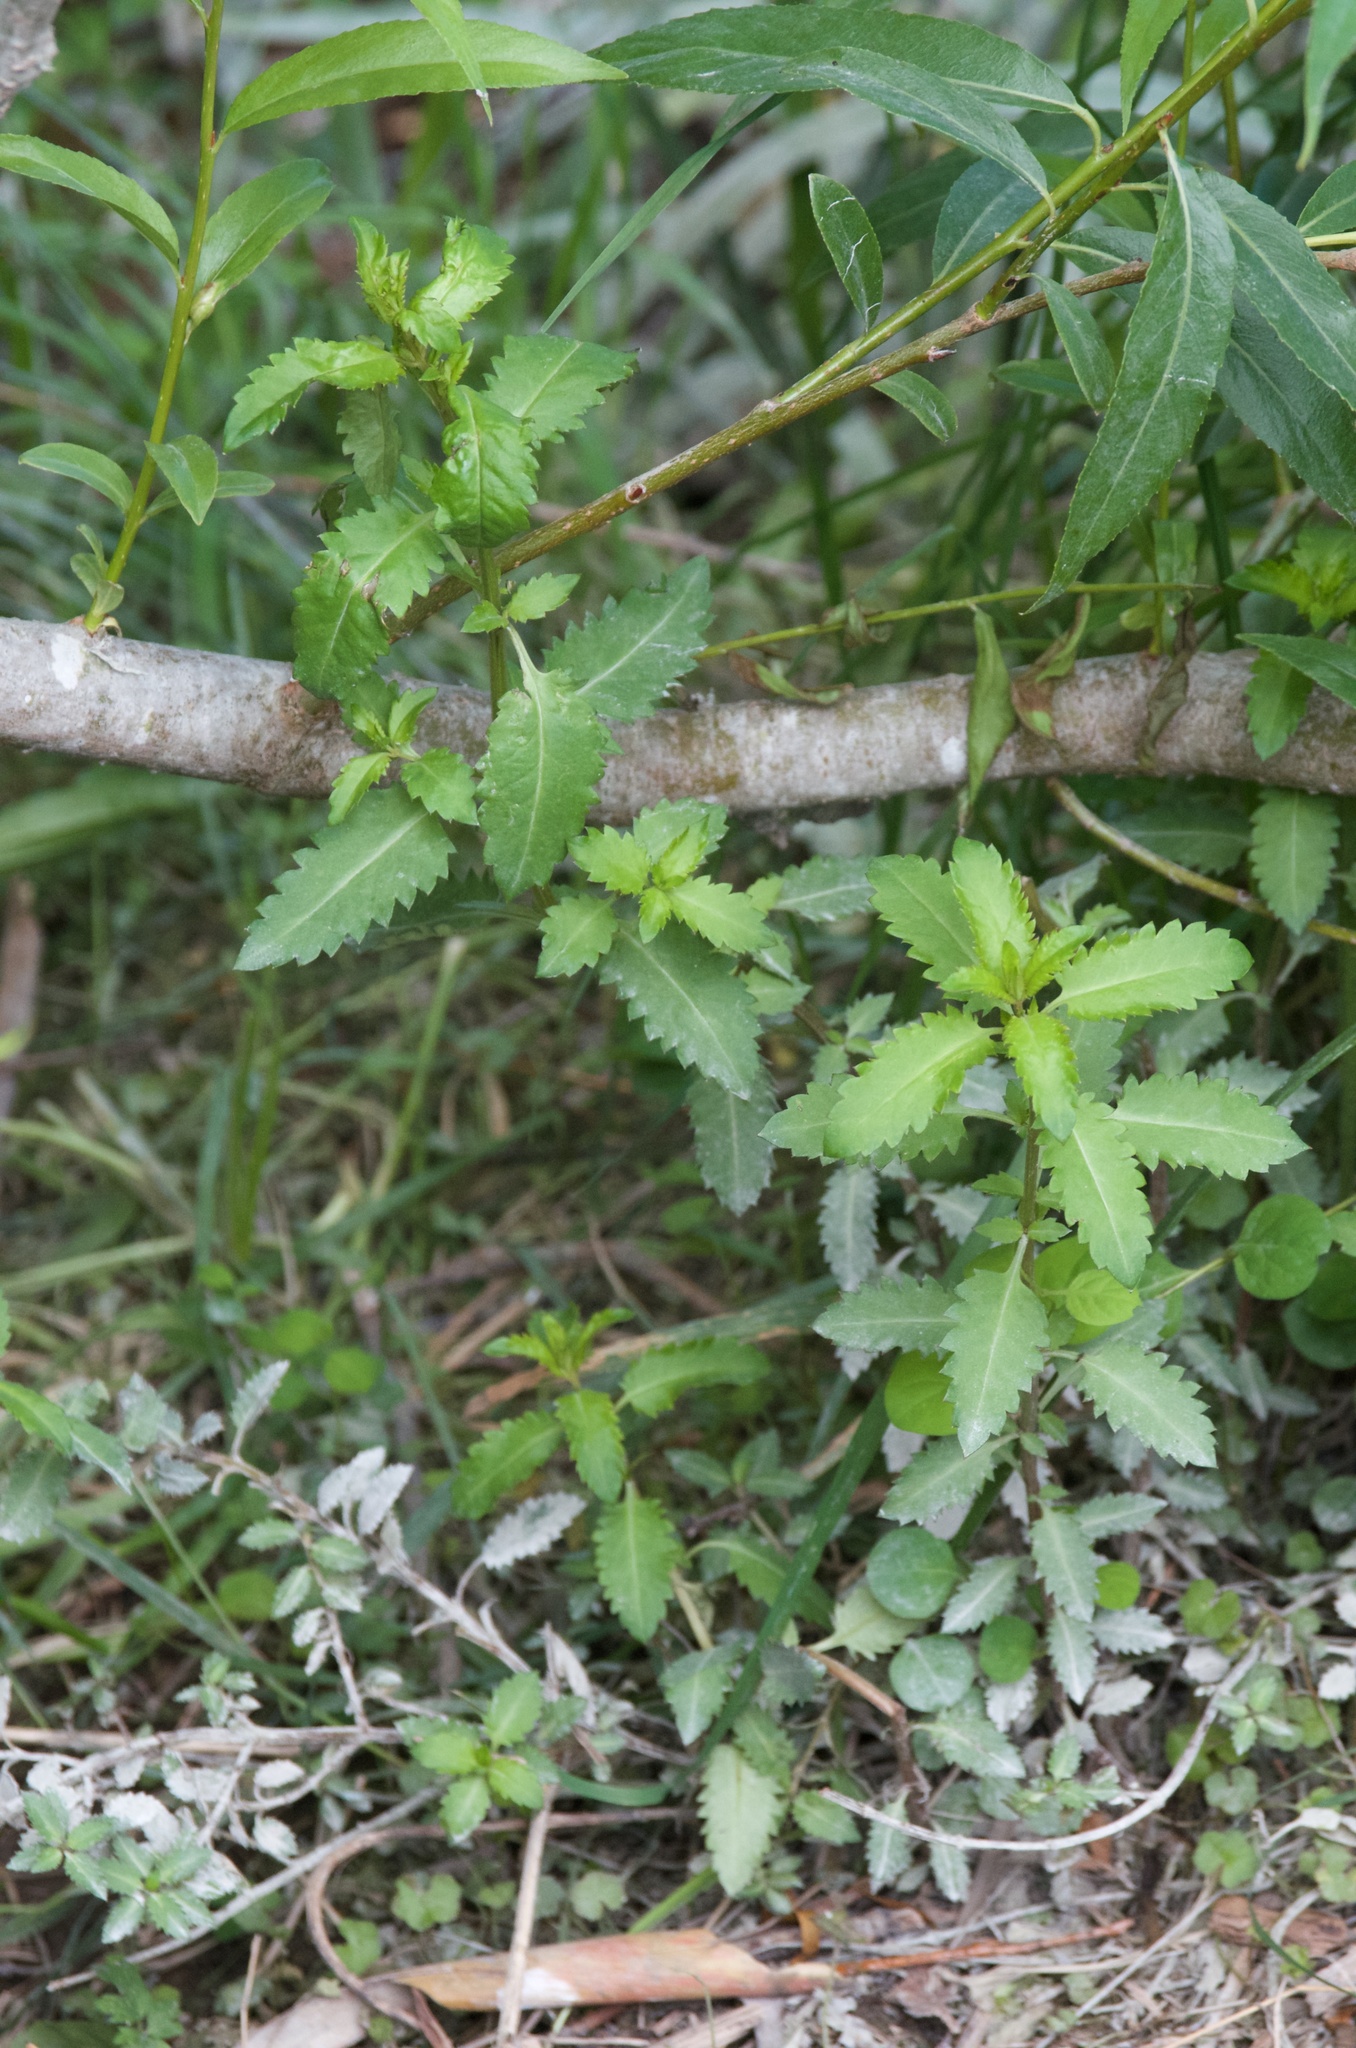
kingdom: Plantae
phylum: Tracheophyta
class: Magnoliopsida
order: Saxifragales
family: Haloragaceae
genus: Haloragis
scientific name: Haloragis erecta
